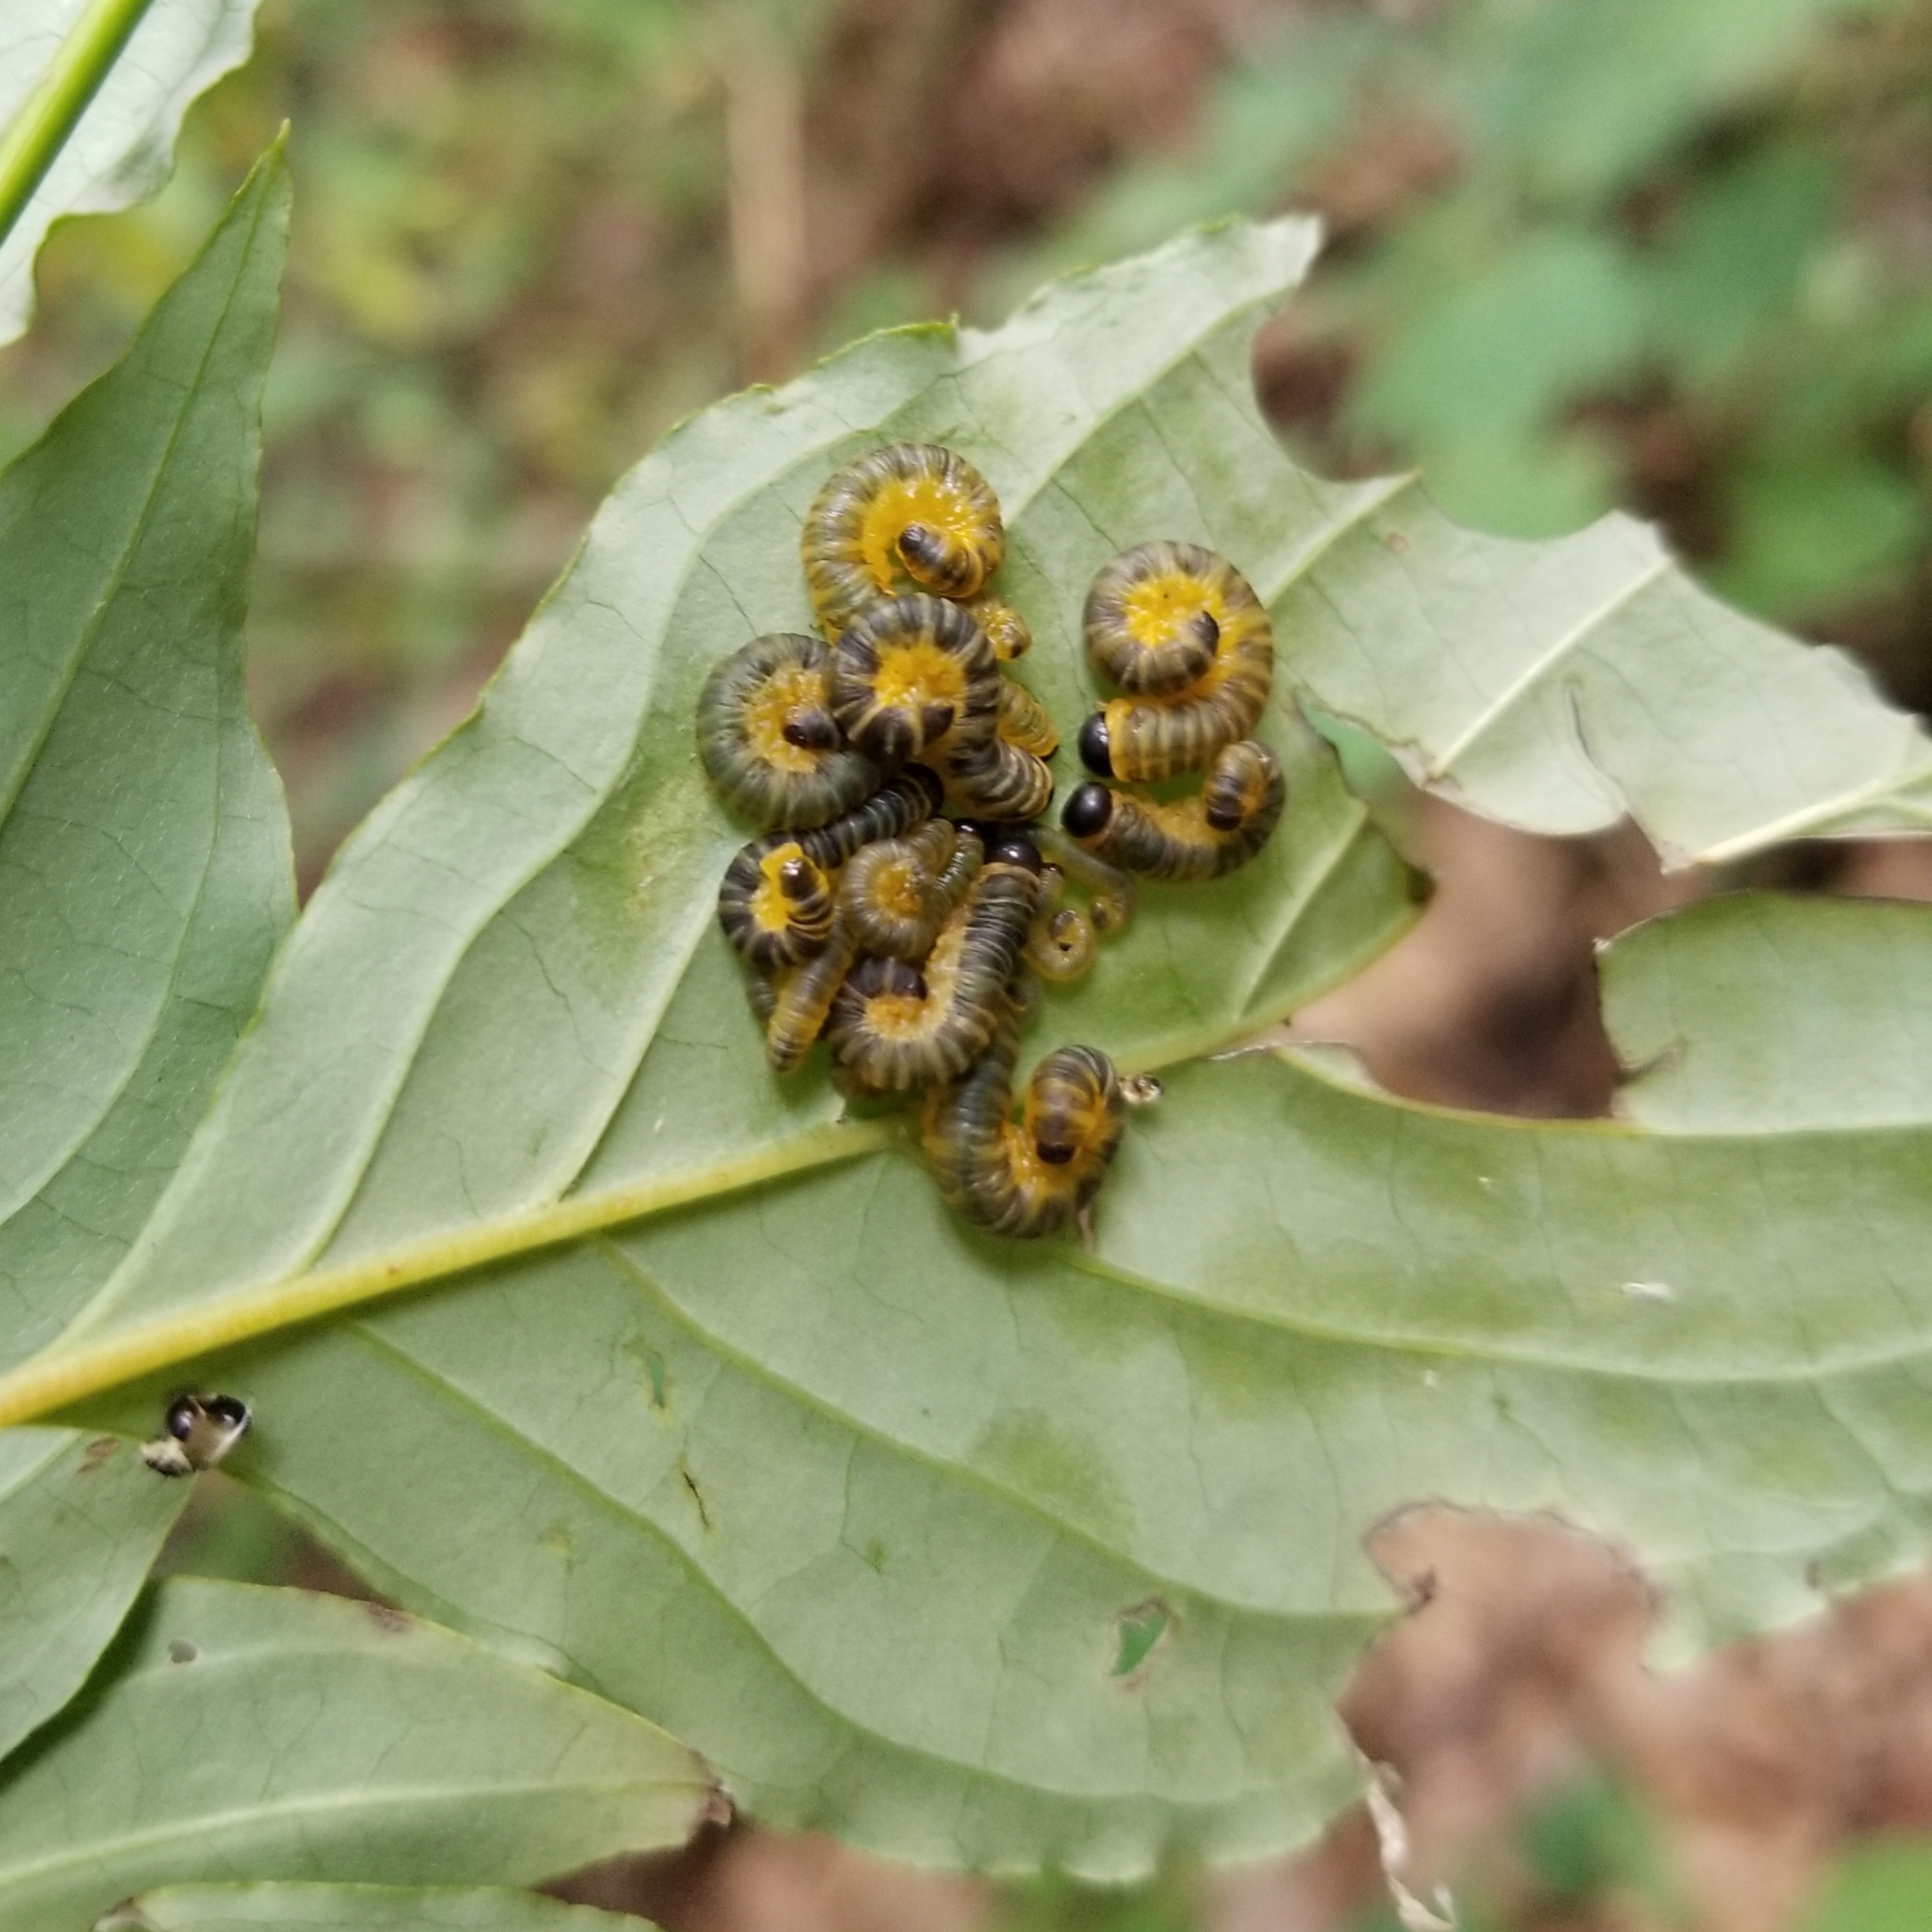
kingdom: Animalia
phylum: Arthropoda
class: Insecta
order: Hymenoptera
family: Tenthredinidae
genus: Macremphytus
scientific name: Macremphytus
